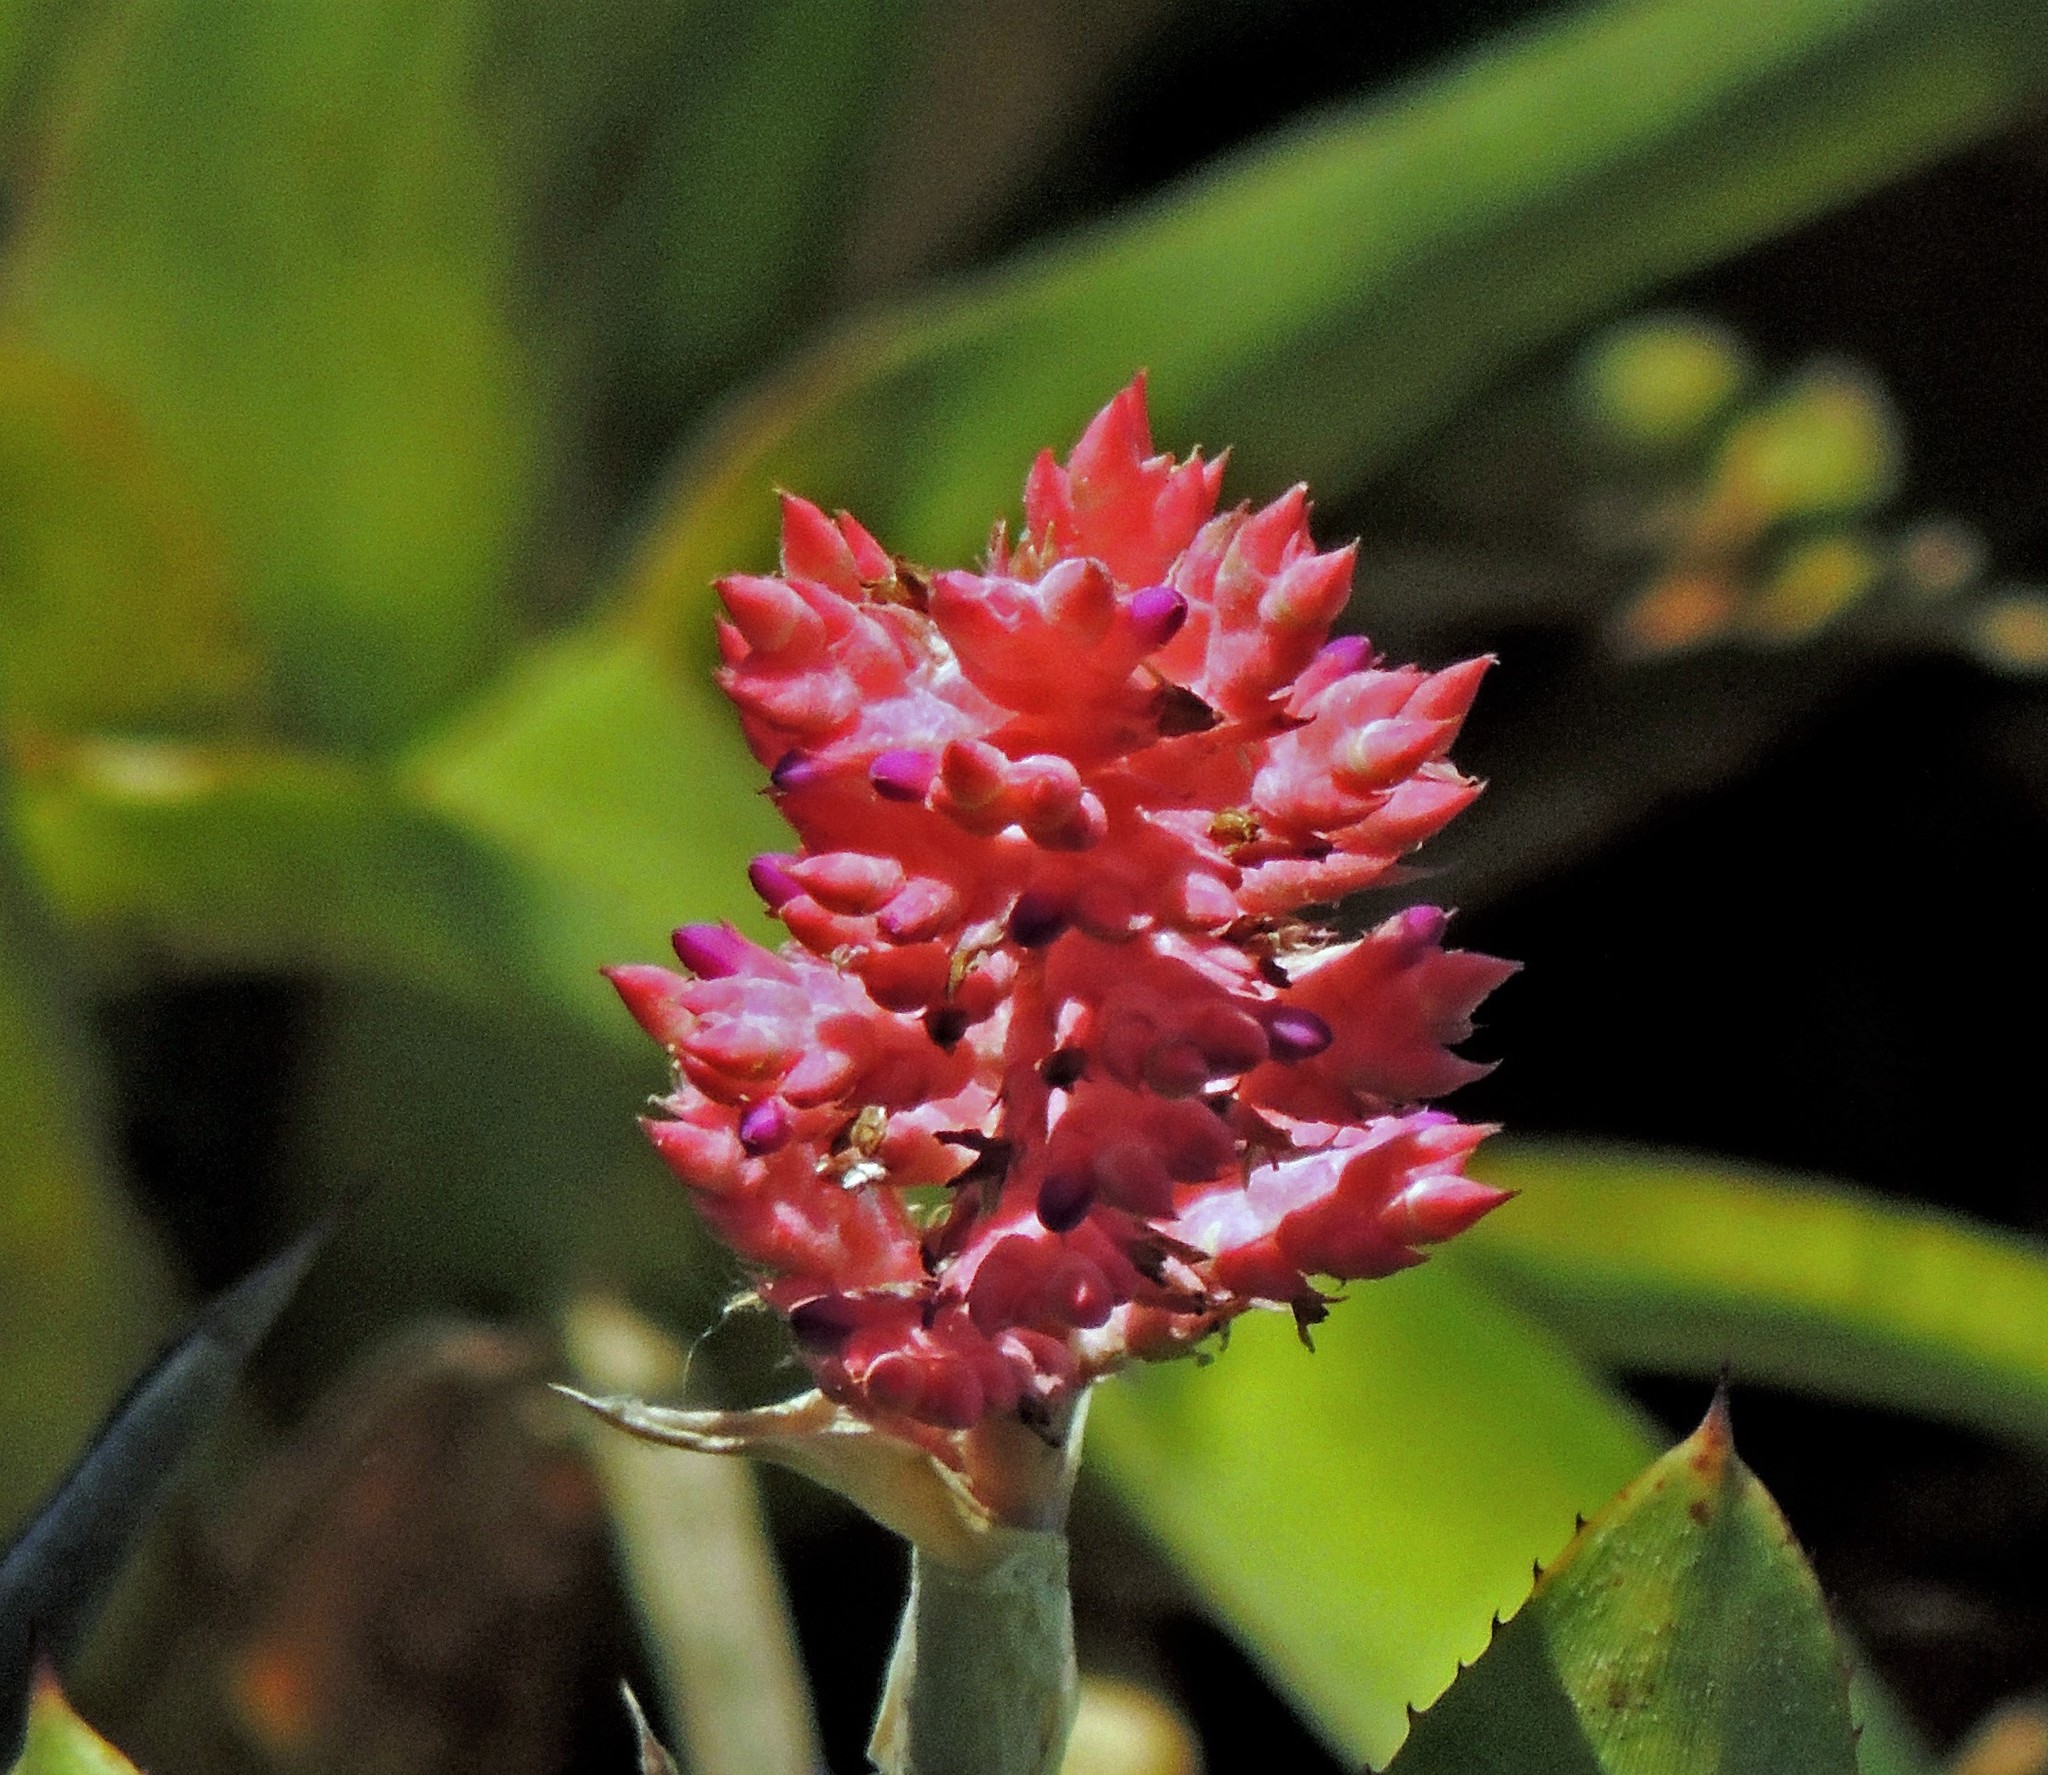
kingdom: Plantae
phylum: Tracheophyta
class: Liliopsida
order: Poales
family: Bromeliaceae
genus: Aechmea
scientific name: Aechmea distichantha
